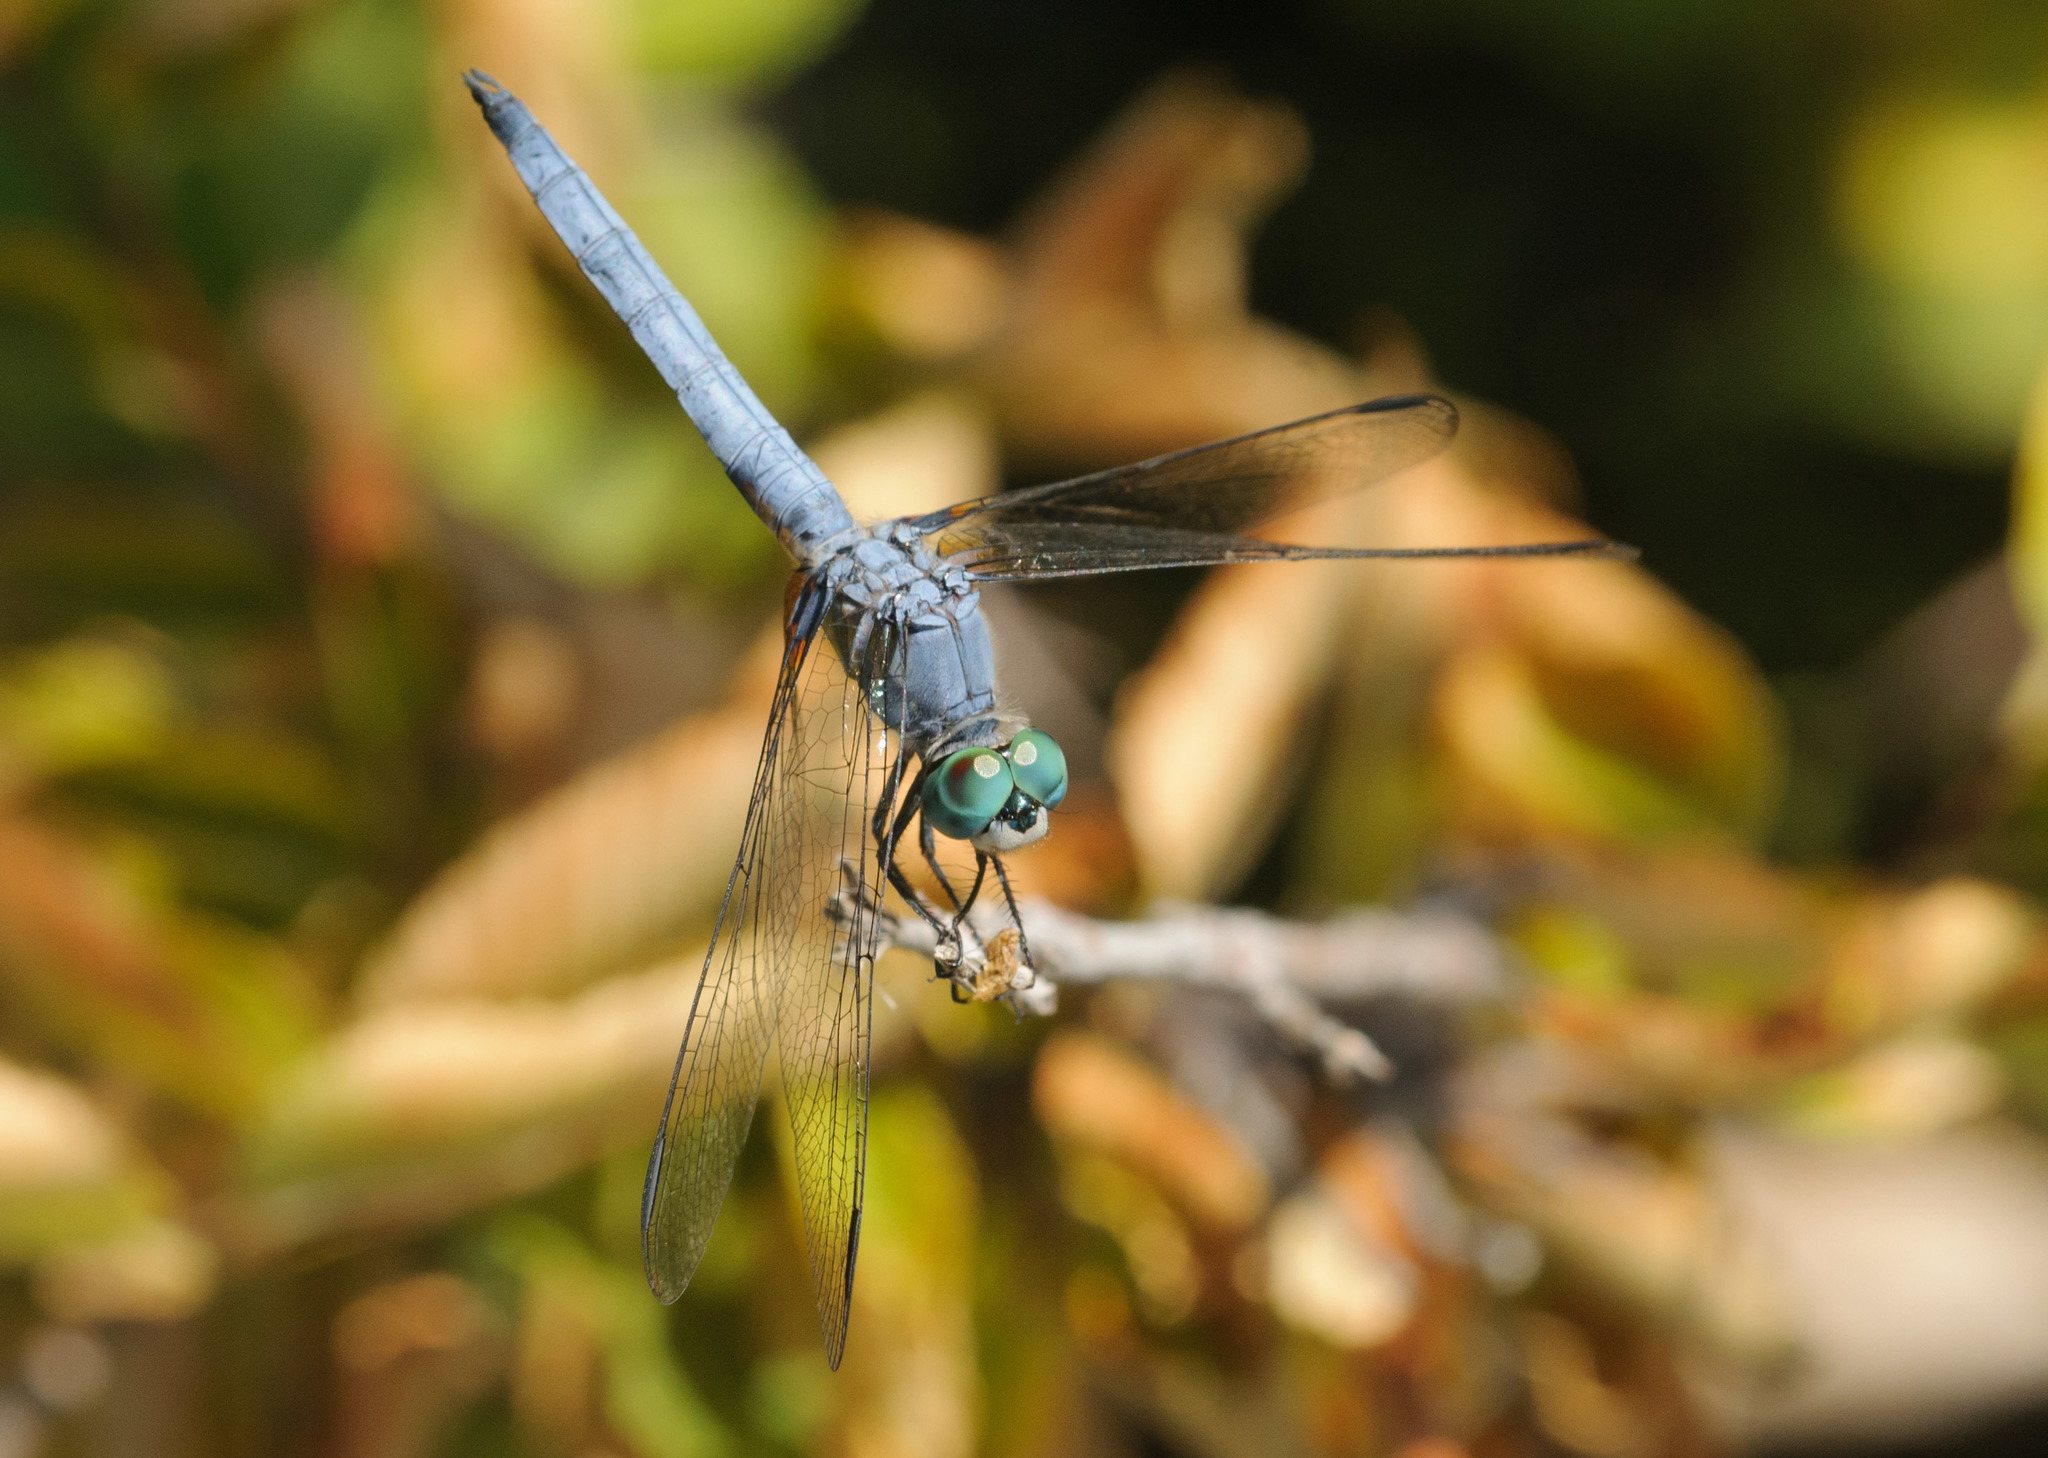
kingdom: Animalia
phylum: Arthropoda
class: Insecta
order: Odonata
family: Libellulidae
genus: Pachydiplax
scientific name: Pachydiplax longipennis
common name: Blue dasher
